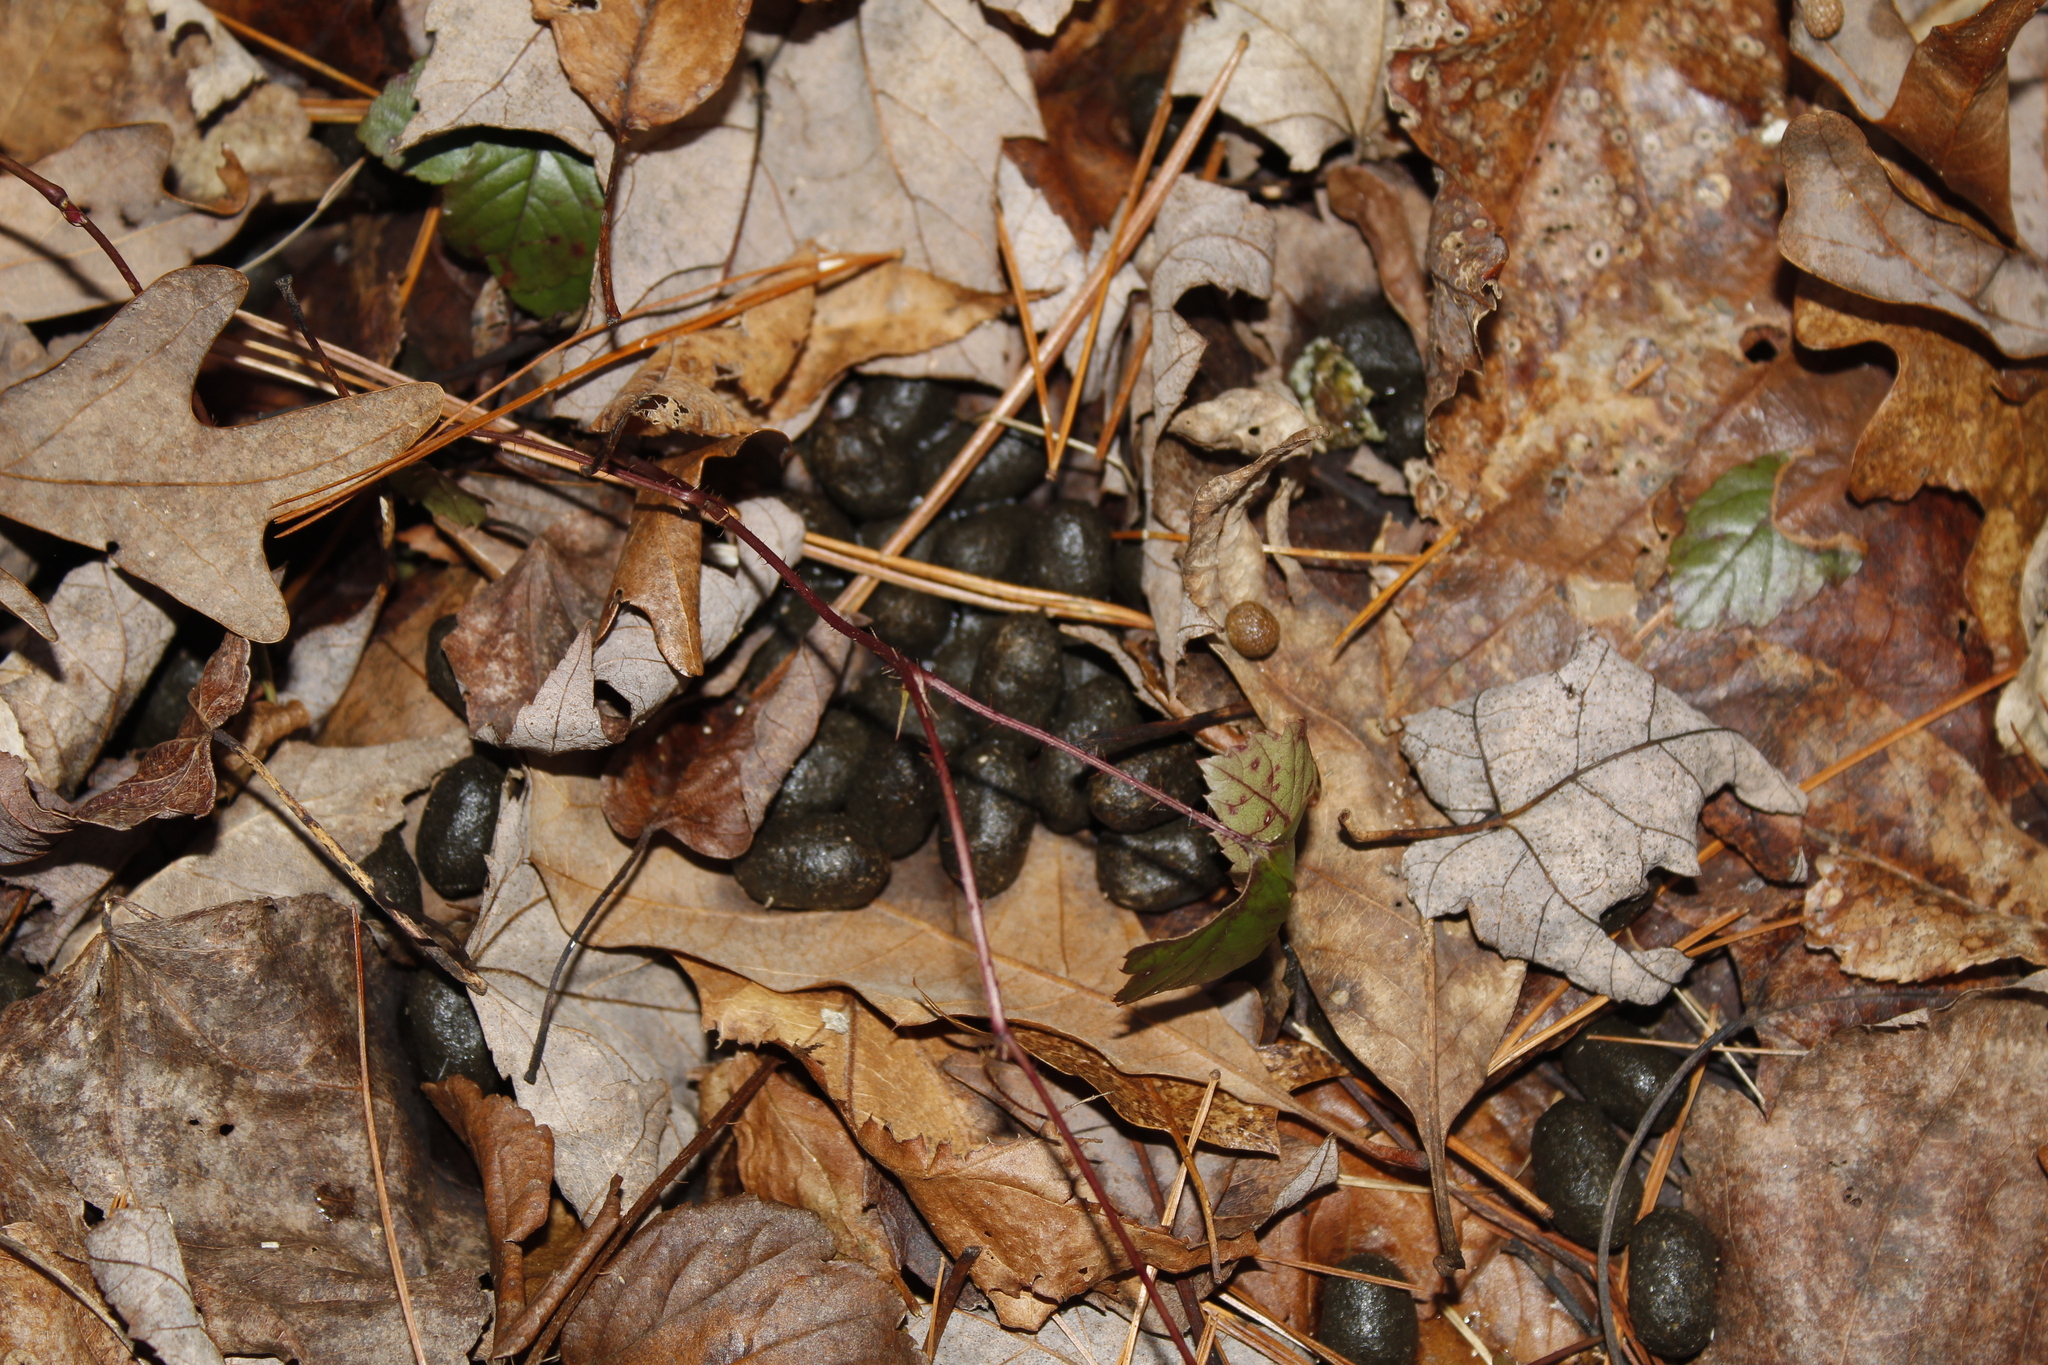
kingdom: Animalia
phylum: Chordata
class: Mammalia
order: Artiodactyla
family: Cervidae
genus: Odocoileus
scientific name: Odocoileus virginianus
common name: White-tailed deer
